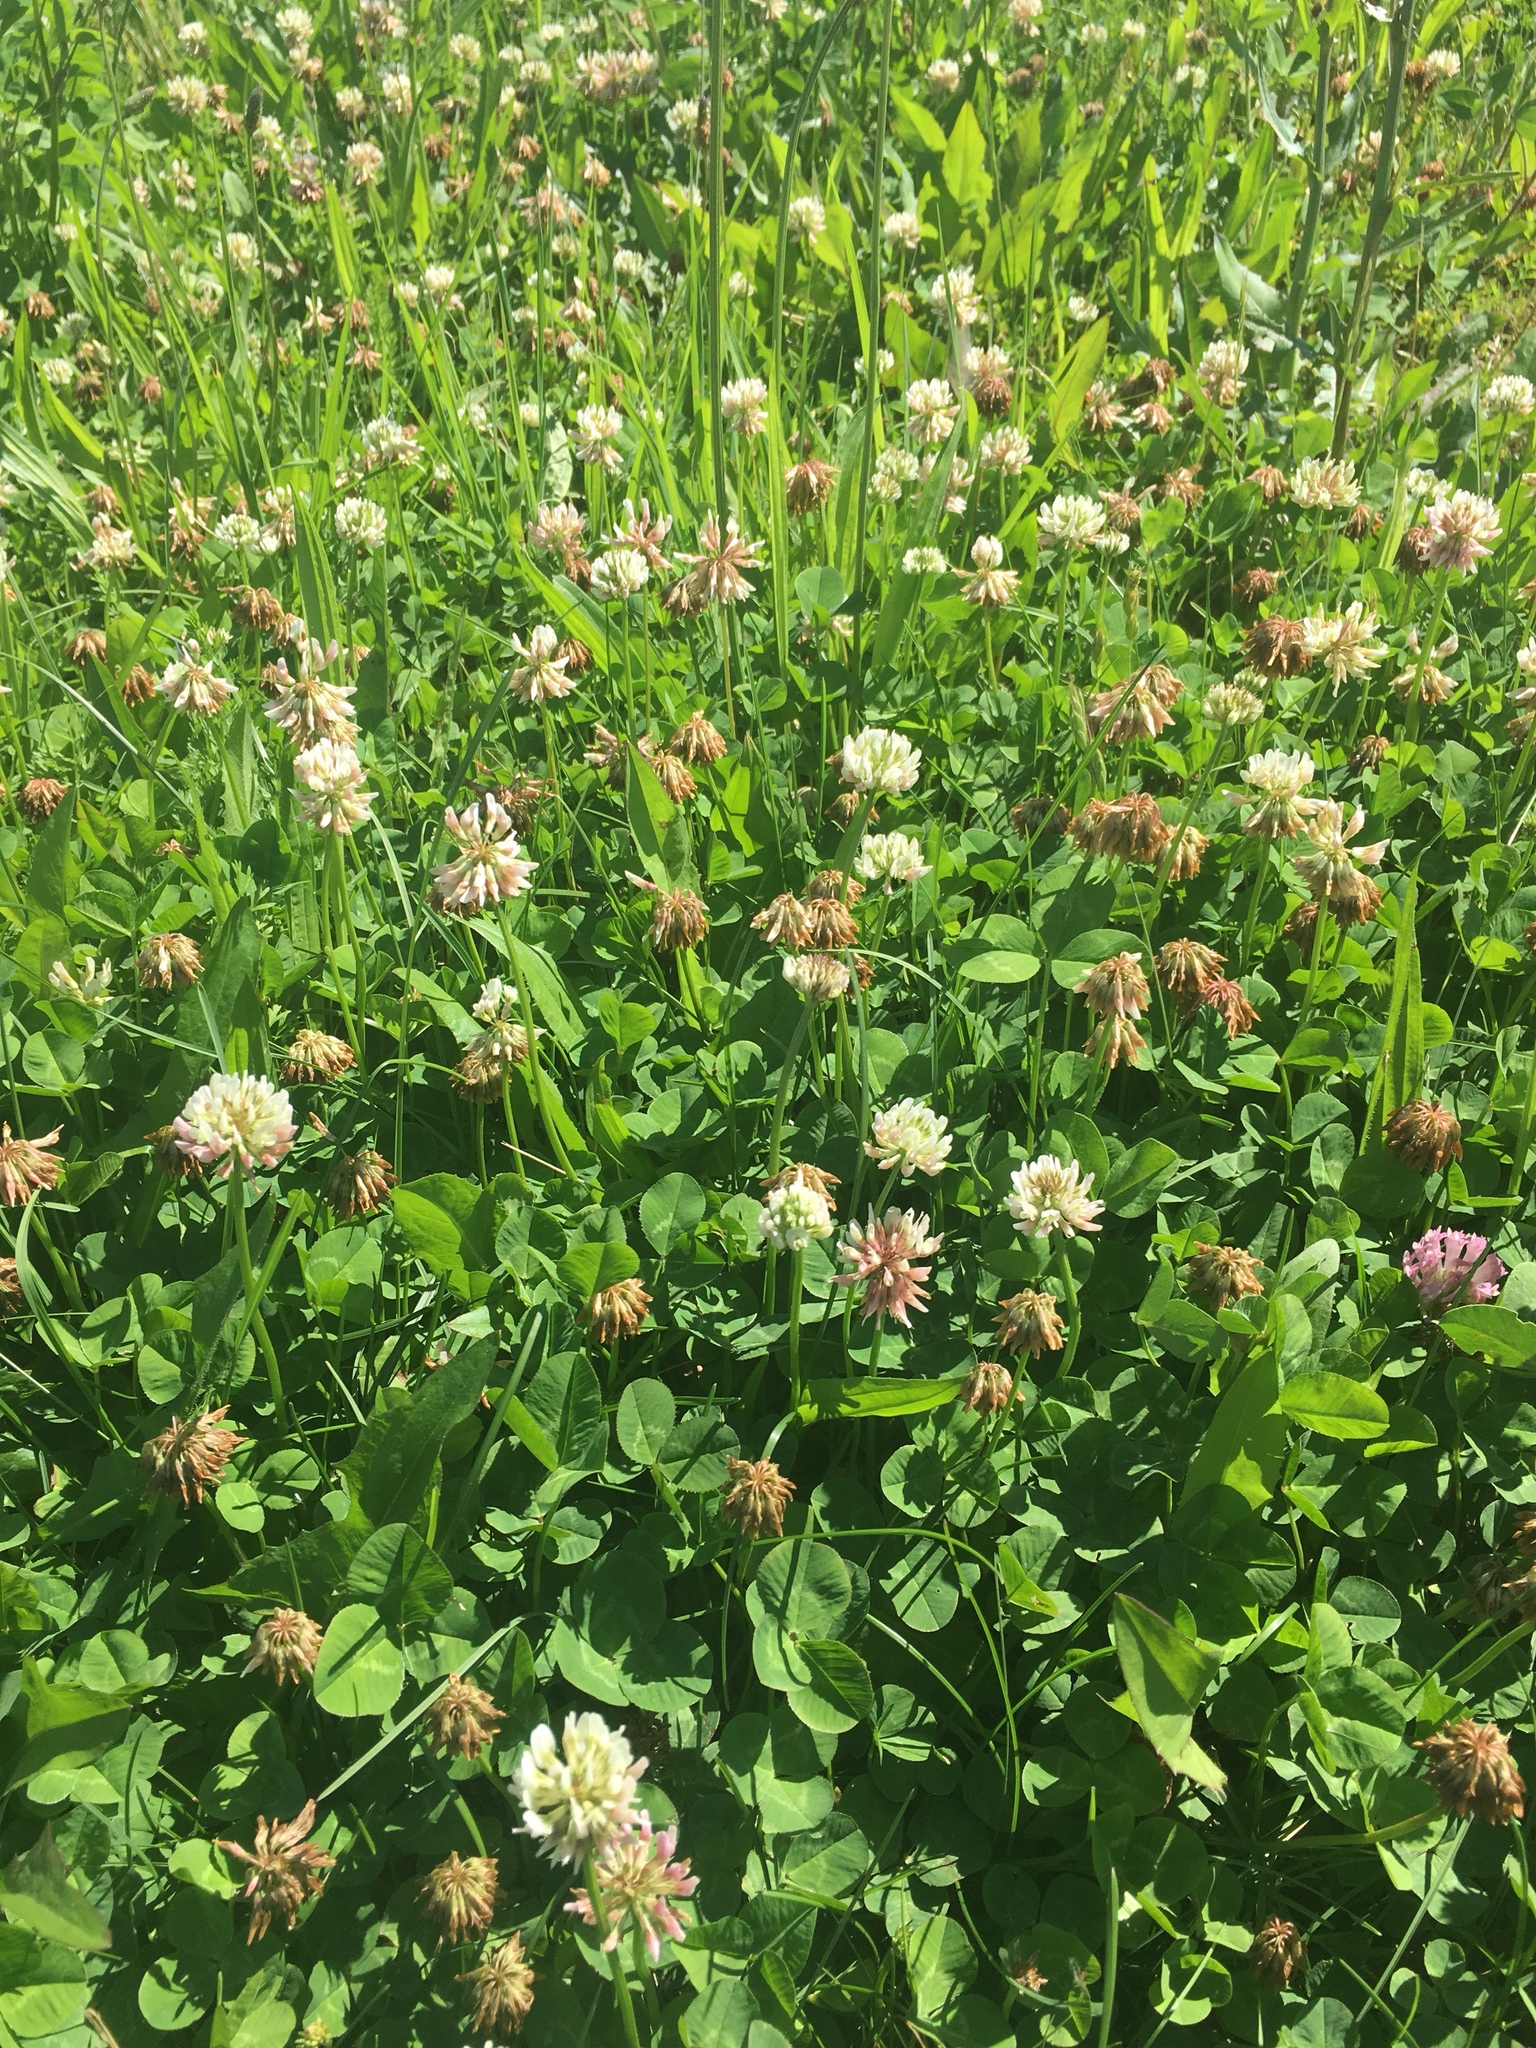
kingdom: Plantae
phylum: Tracheophyta
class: Magnoliopsida
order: Fabales
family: Fabaceae
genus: Trifolium
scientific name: Trifolium repens
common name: White clover
